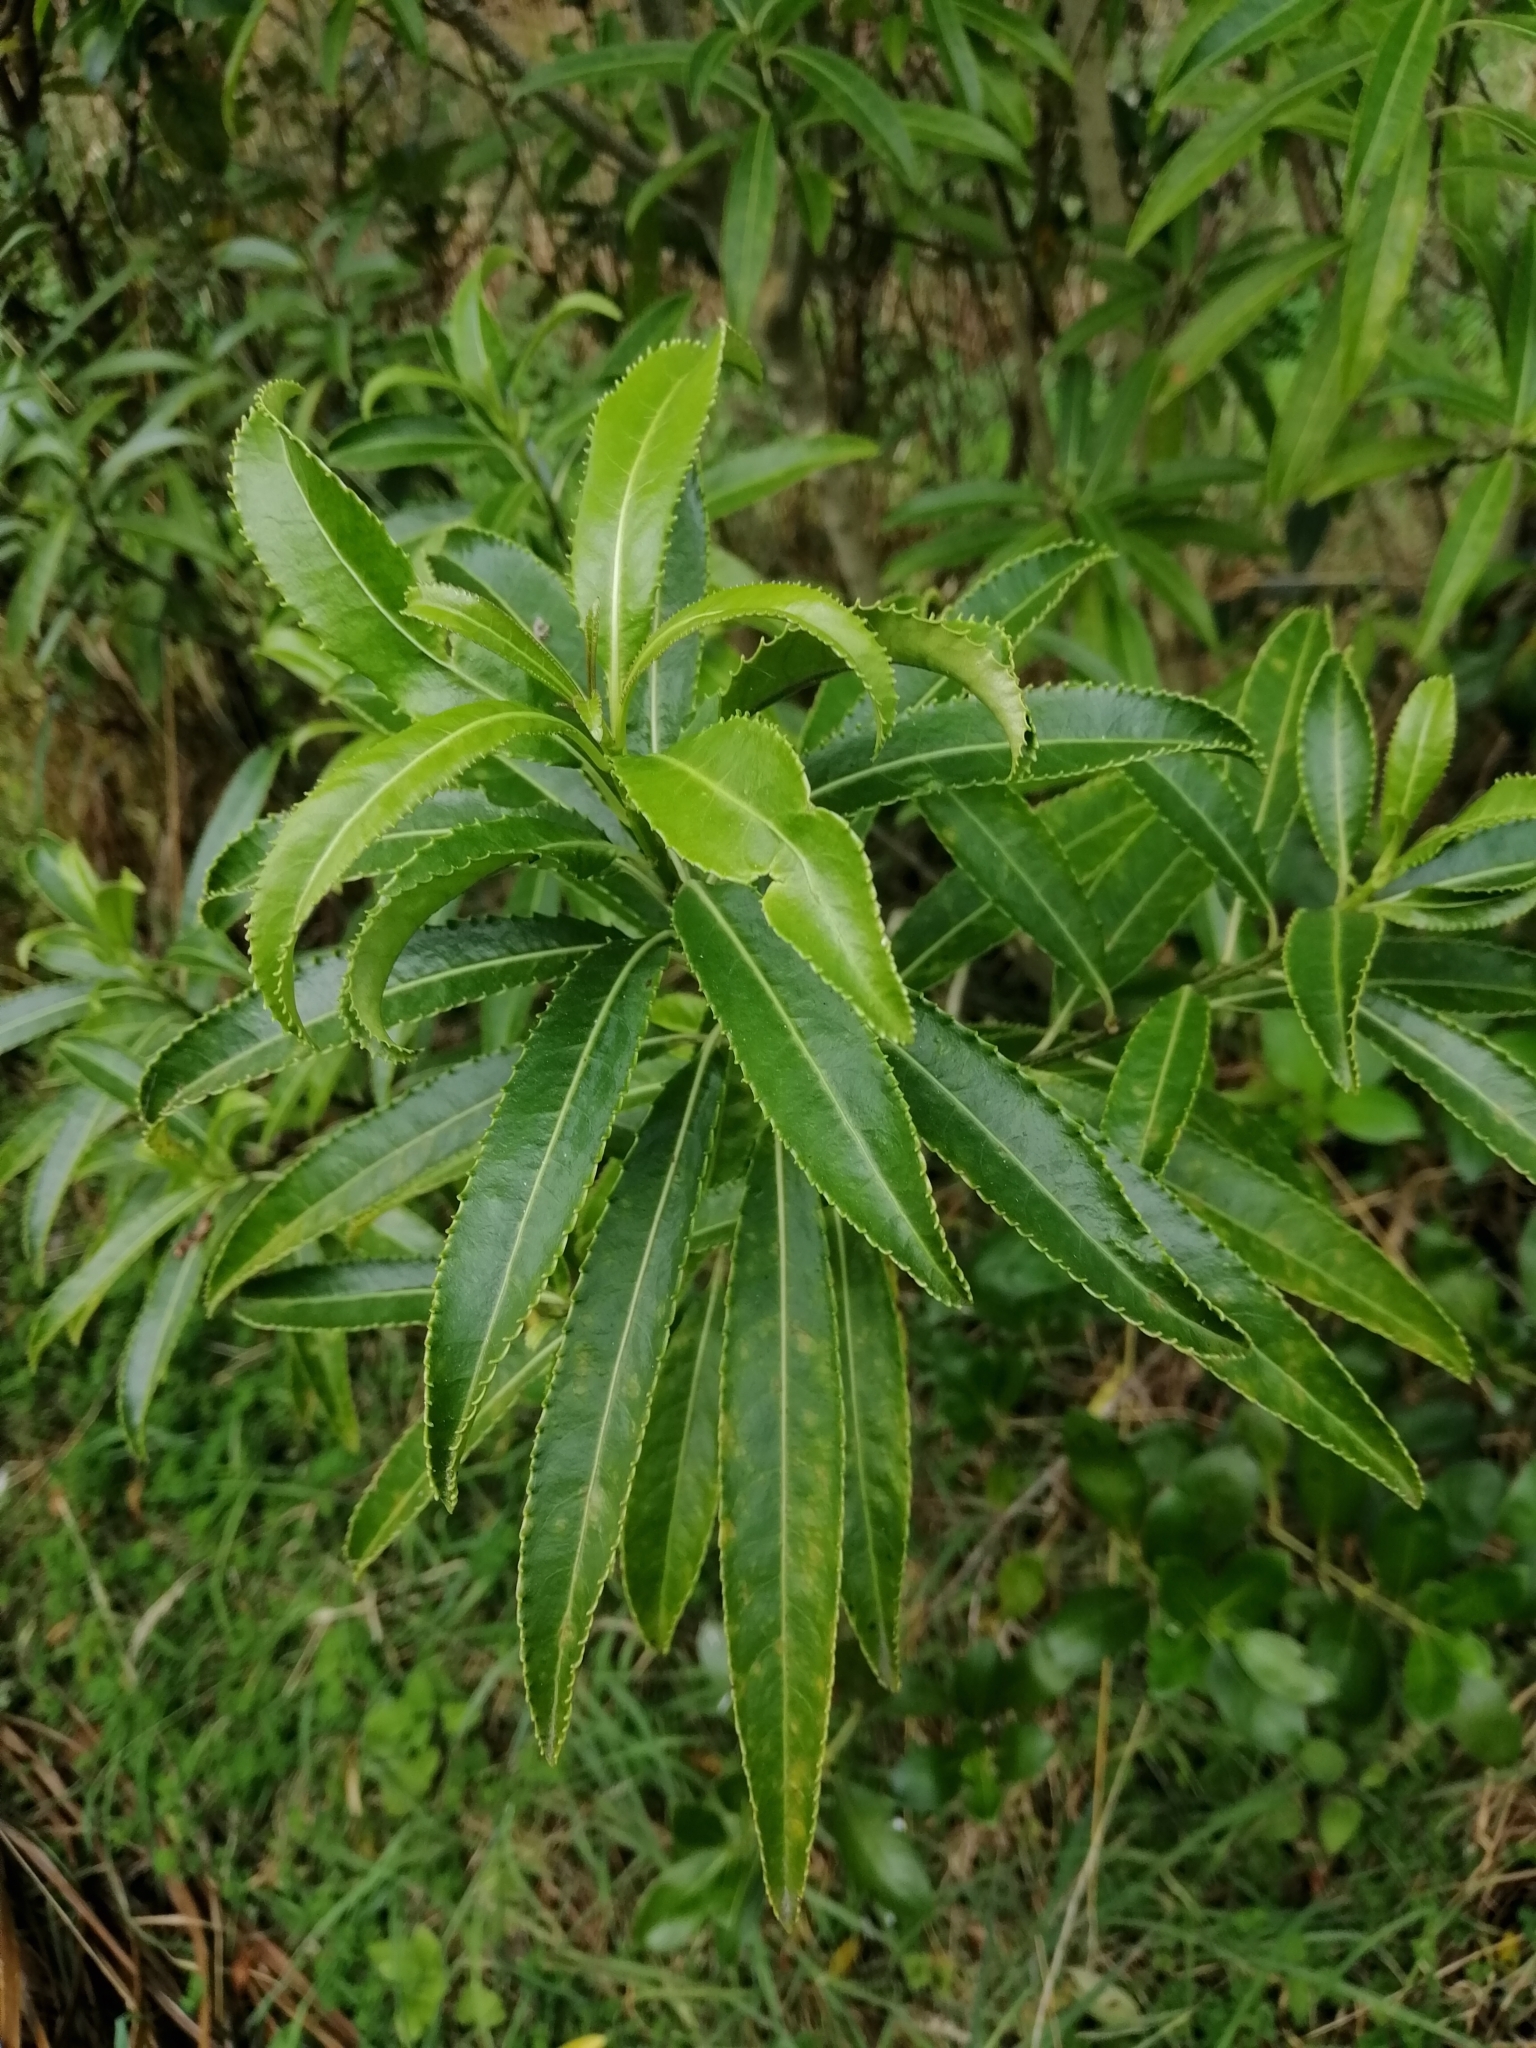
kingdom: Plantae
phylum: Tracheophyta
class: Magnoliopsida
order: Malpighiales
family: Violaceae
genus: Melicytus
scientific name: Melicytus lanceolatus
